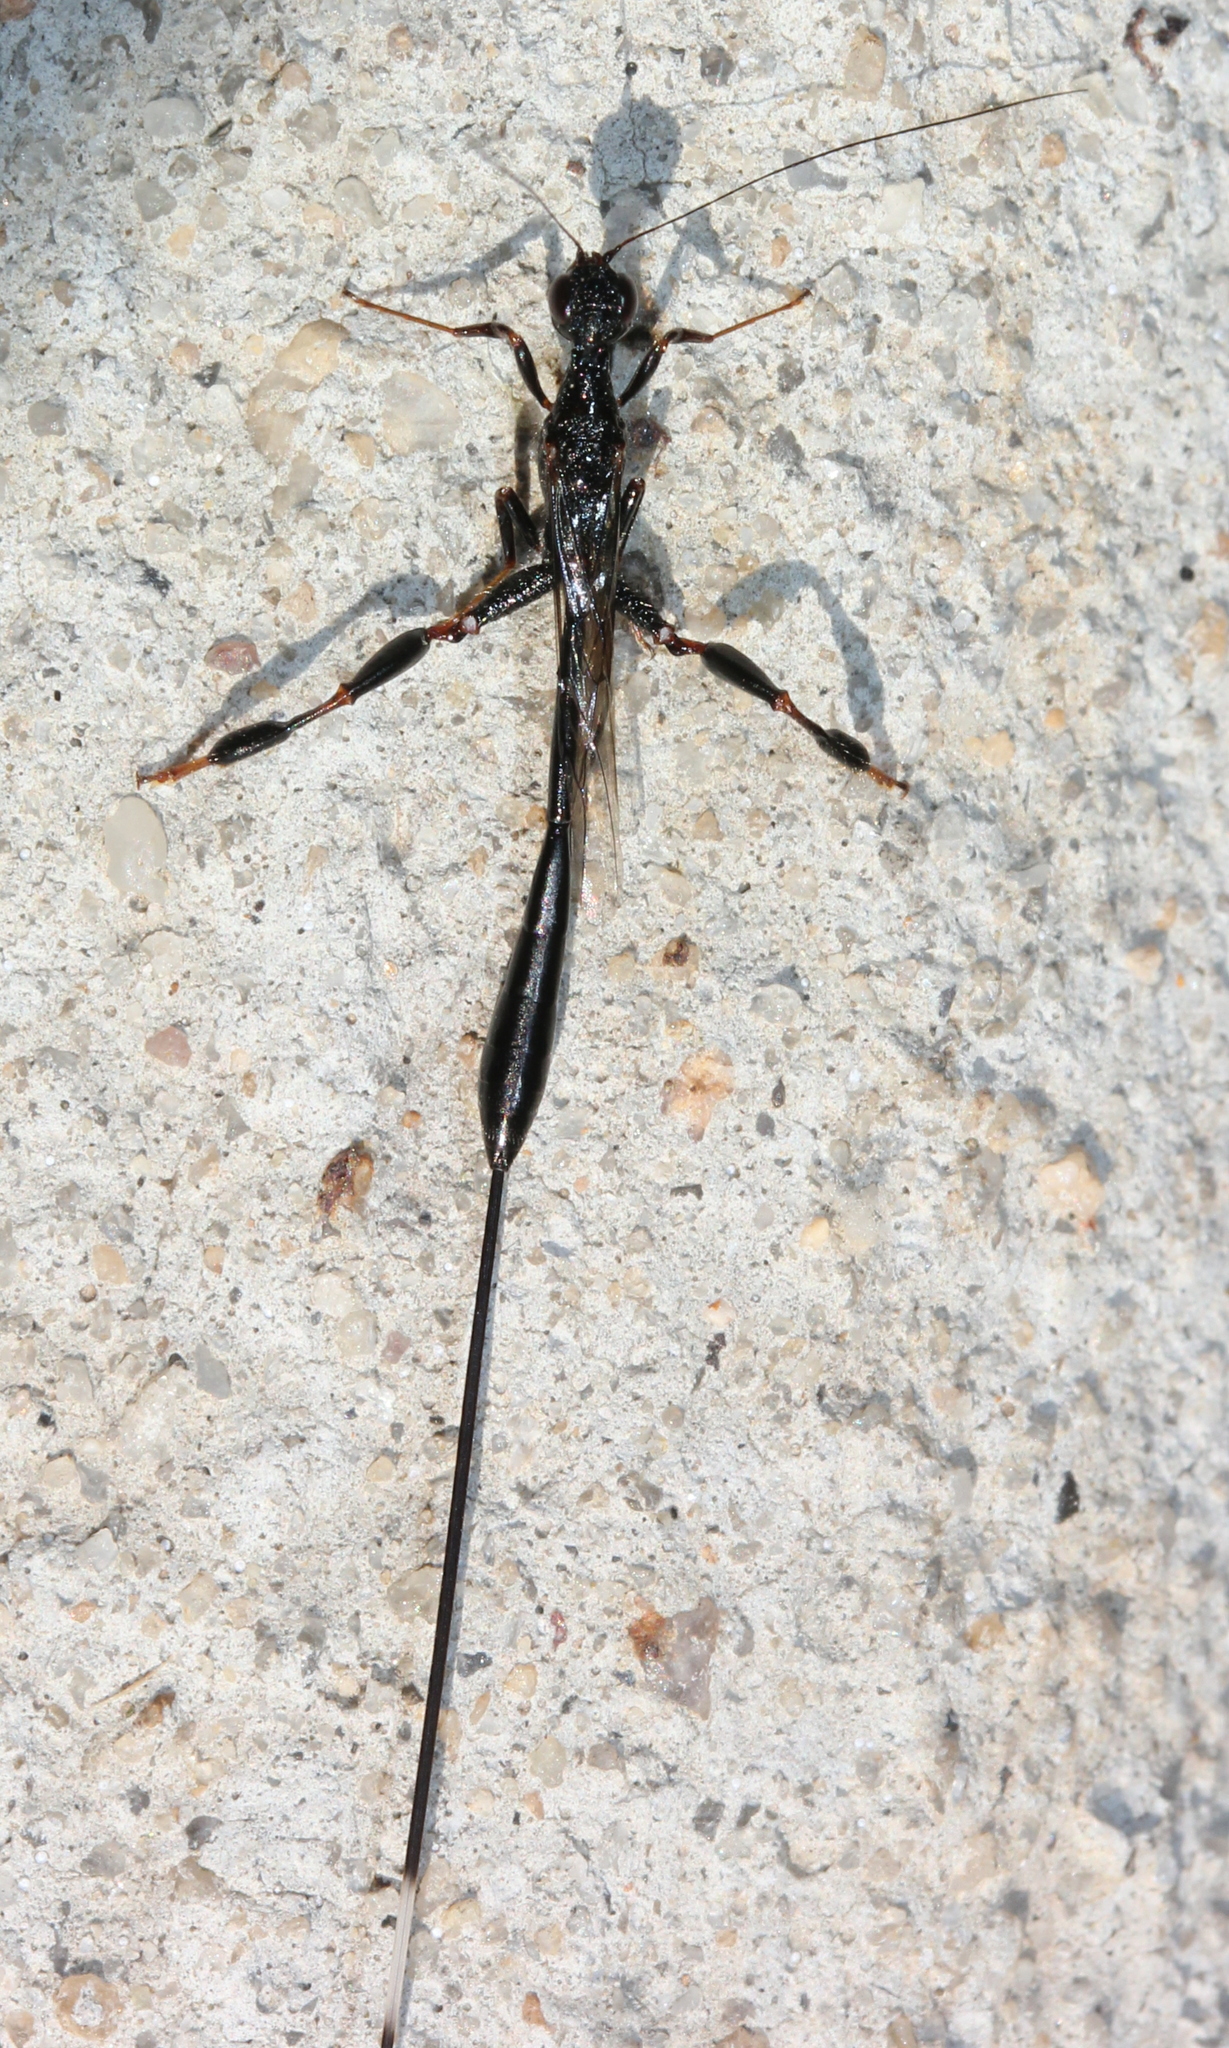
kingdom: Animalia
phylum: Arthropoda
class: Insecta
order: Hymenoptera
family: Stephanidae
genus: Megischus
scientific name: Megischus
